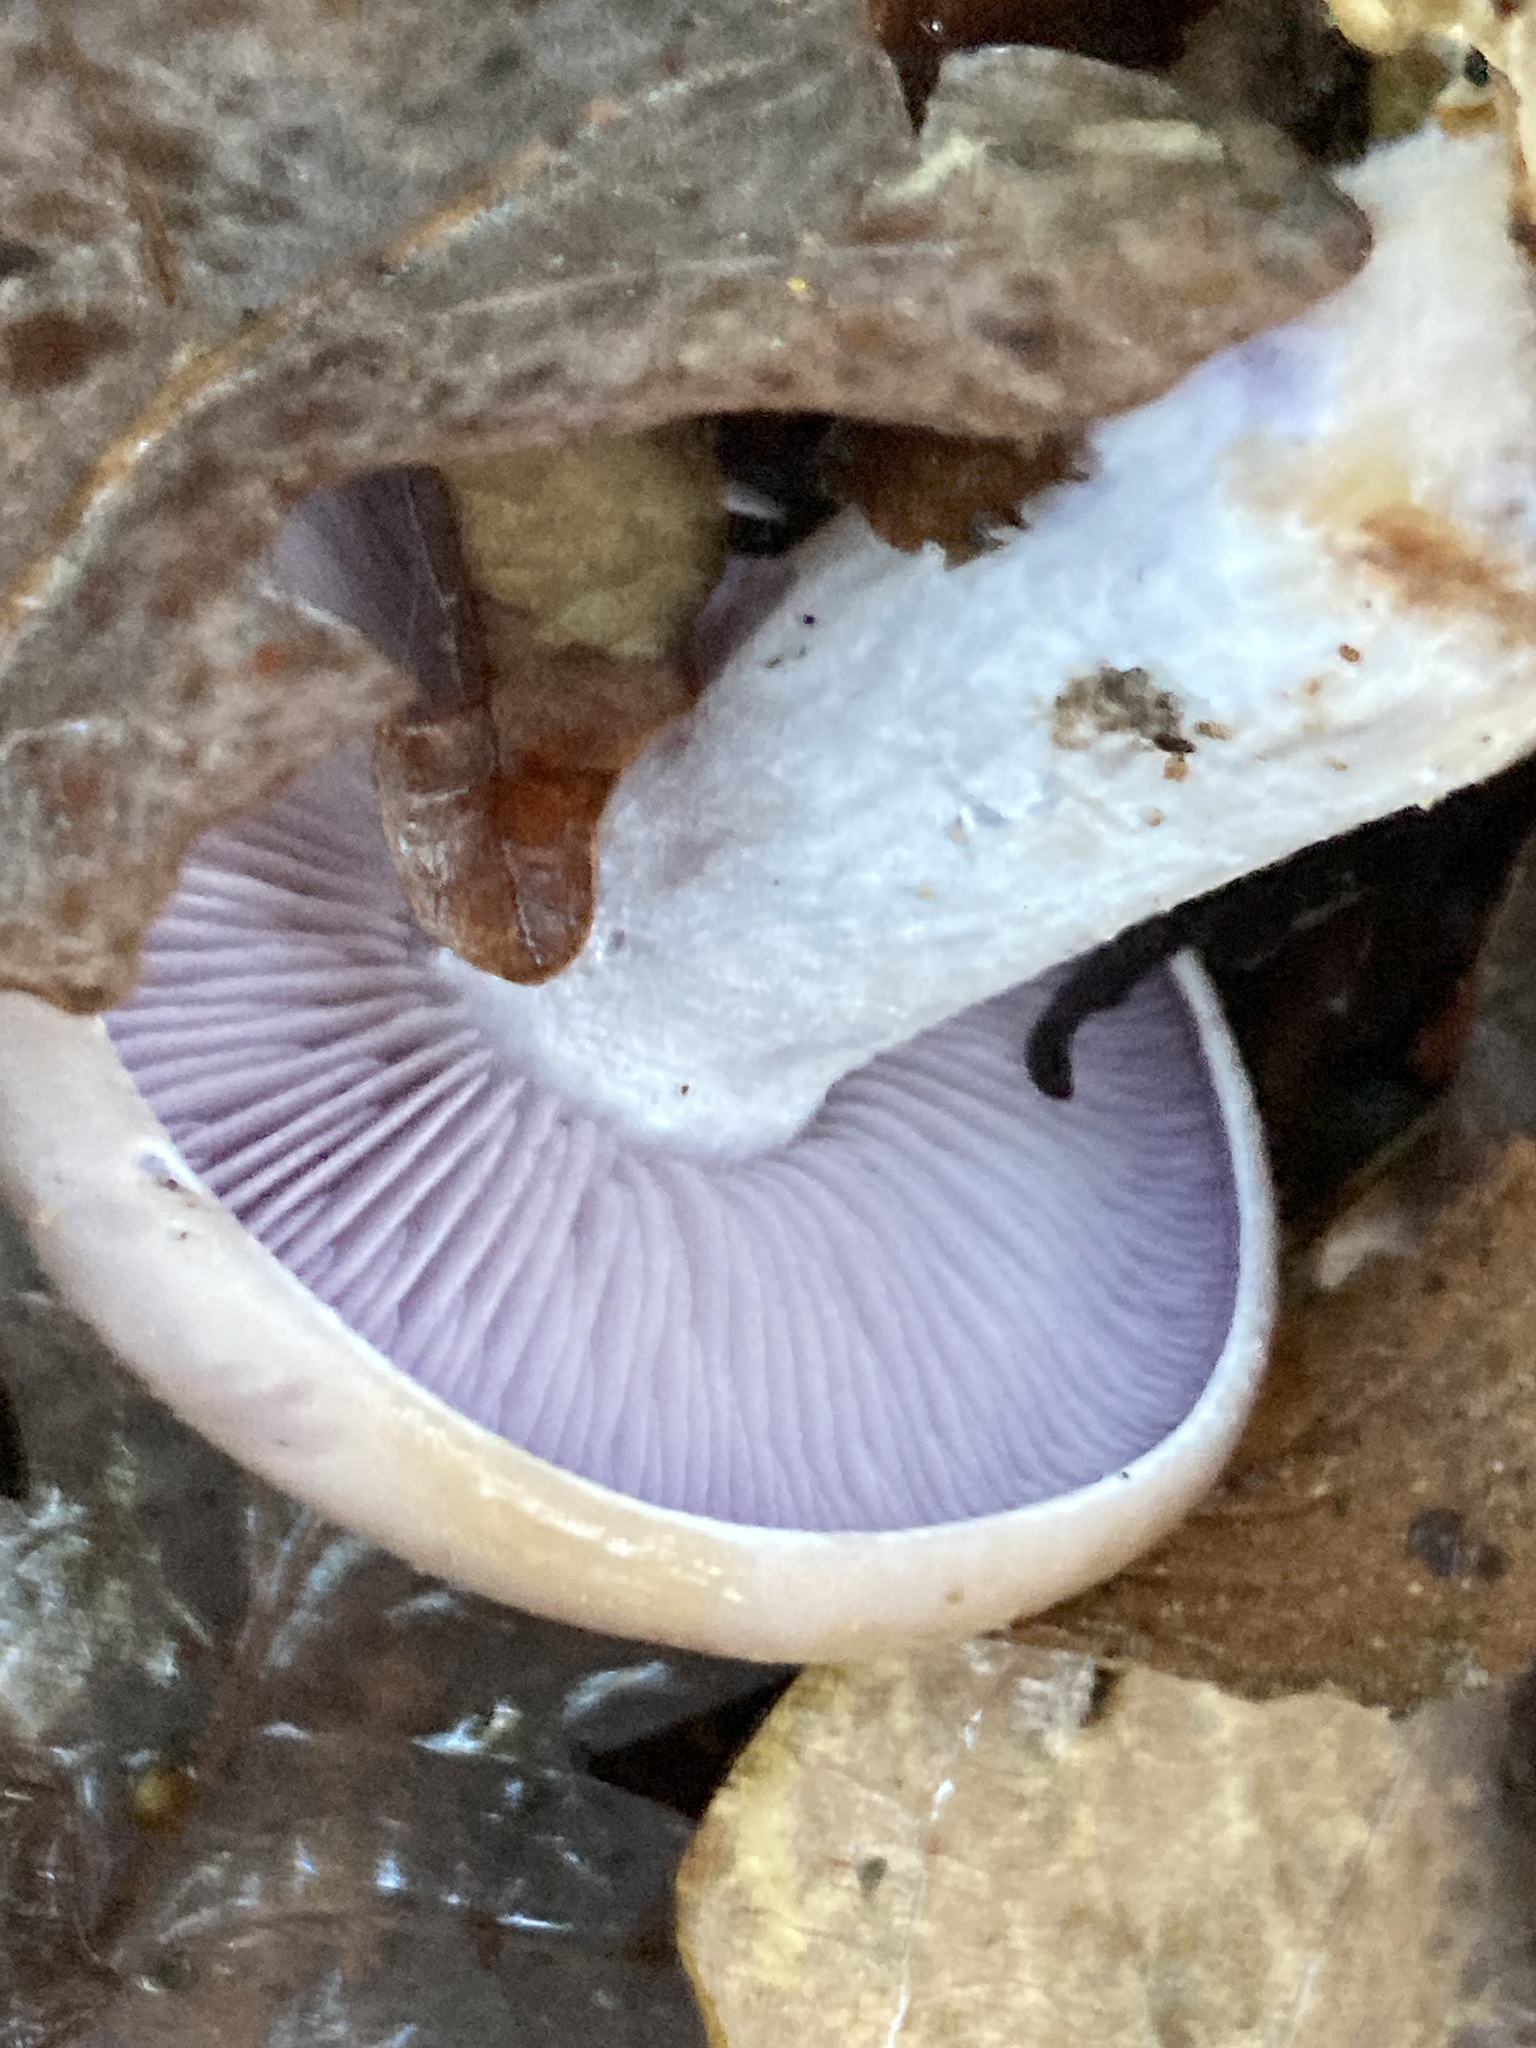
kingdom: Fungi
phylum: Basidiomycota
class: Agaricomycetes
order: Agaricales
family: Tricholomataceae
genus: Collybia
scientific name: Collybia
